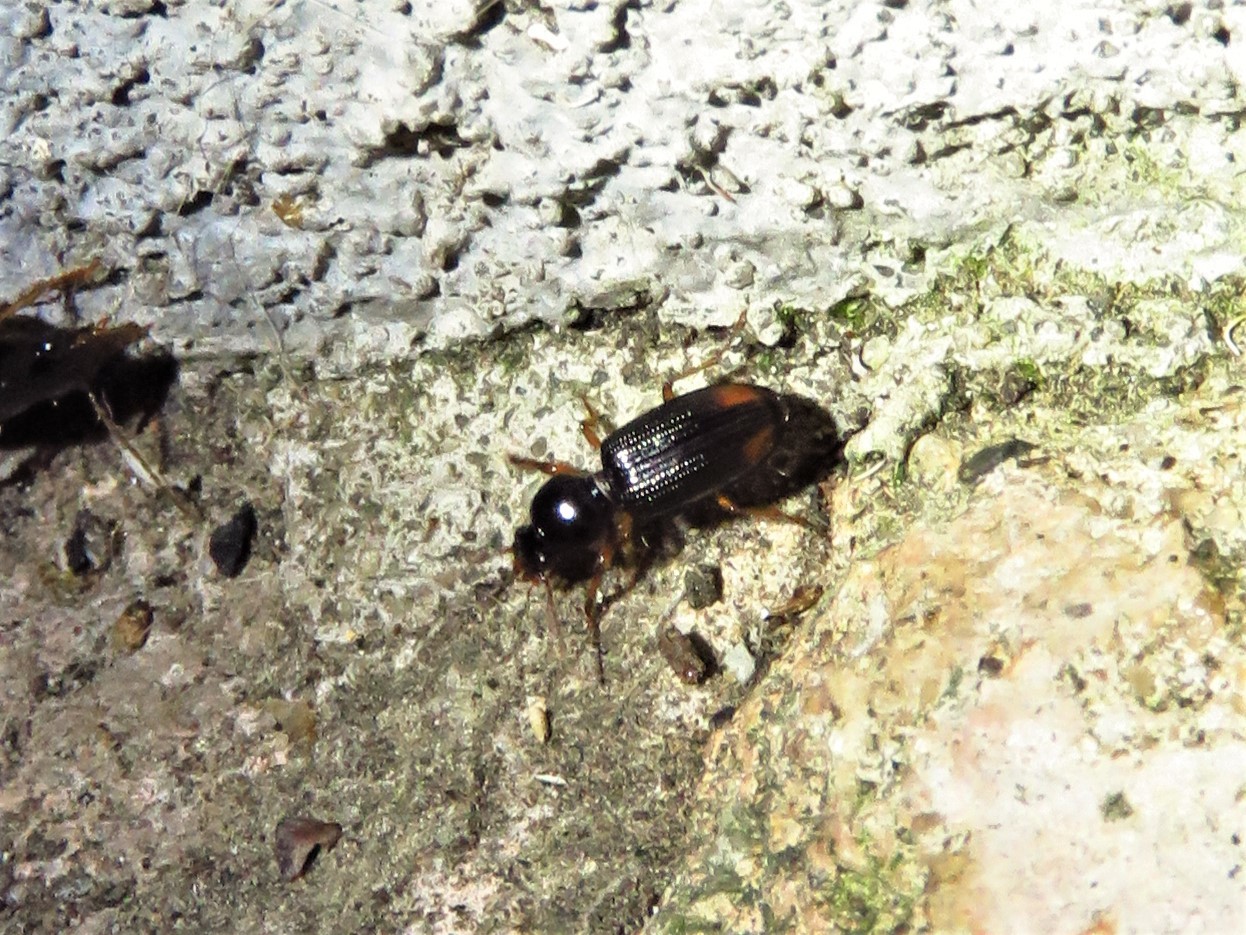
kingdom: Animalia
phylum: Arthropoda
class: Insecta
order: Coleoptera
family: Carabidae
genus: Aspidoglossa
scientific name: Aspidoglossa subangulata
